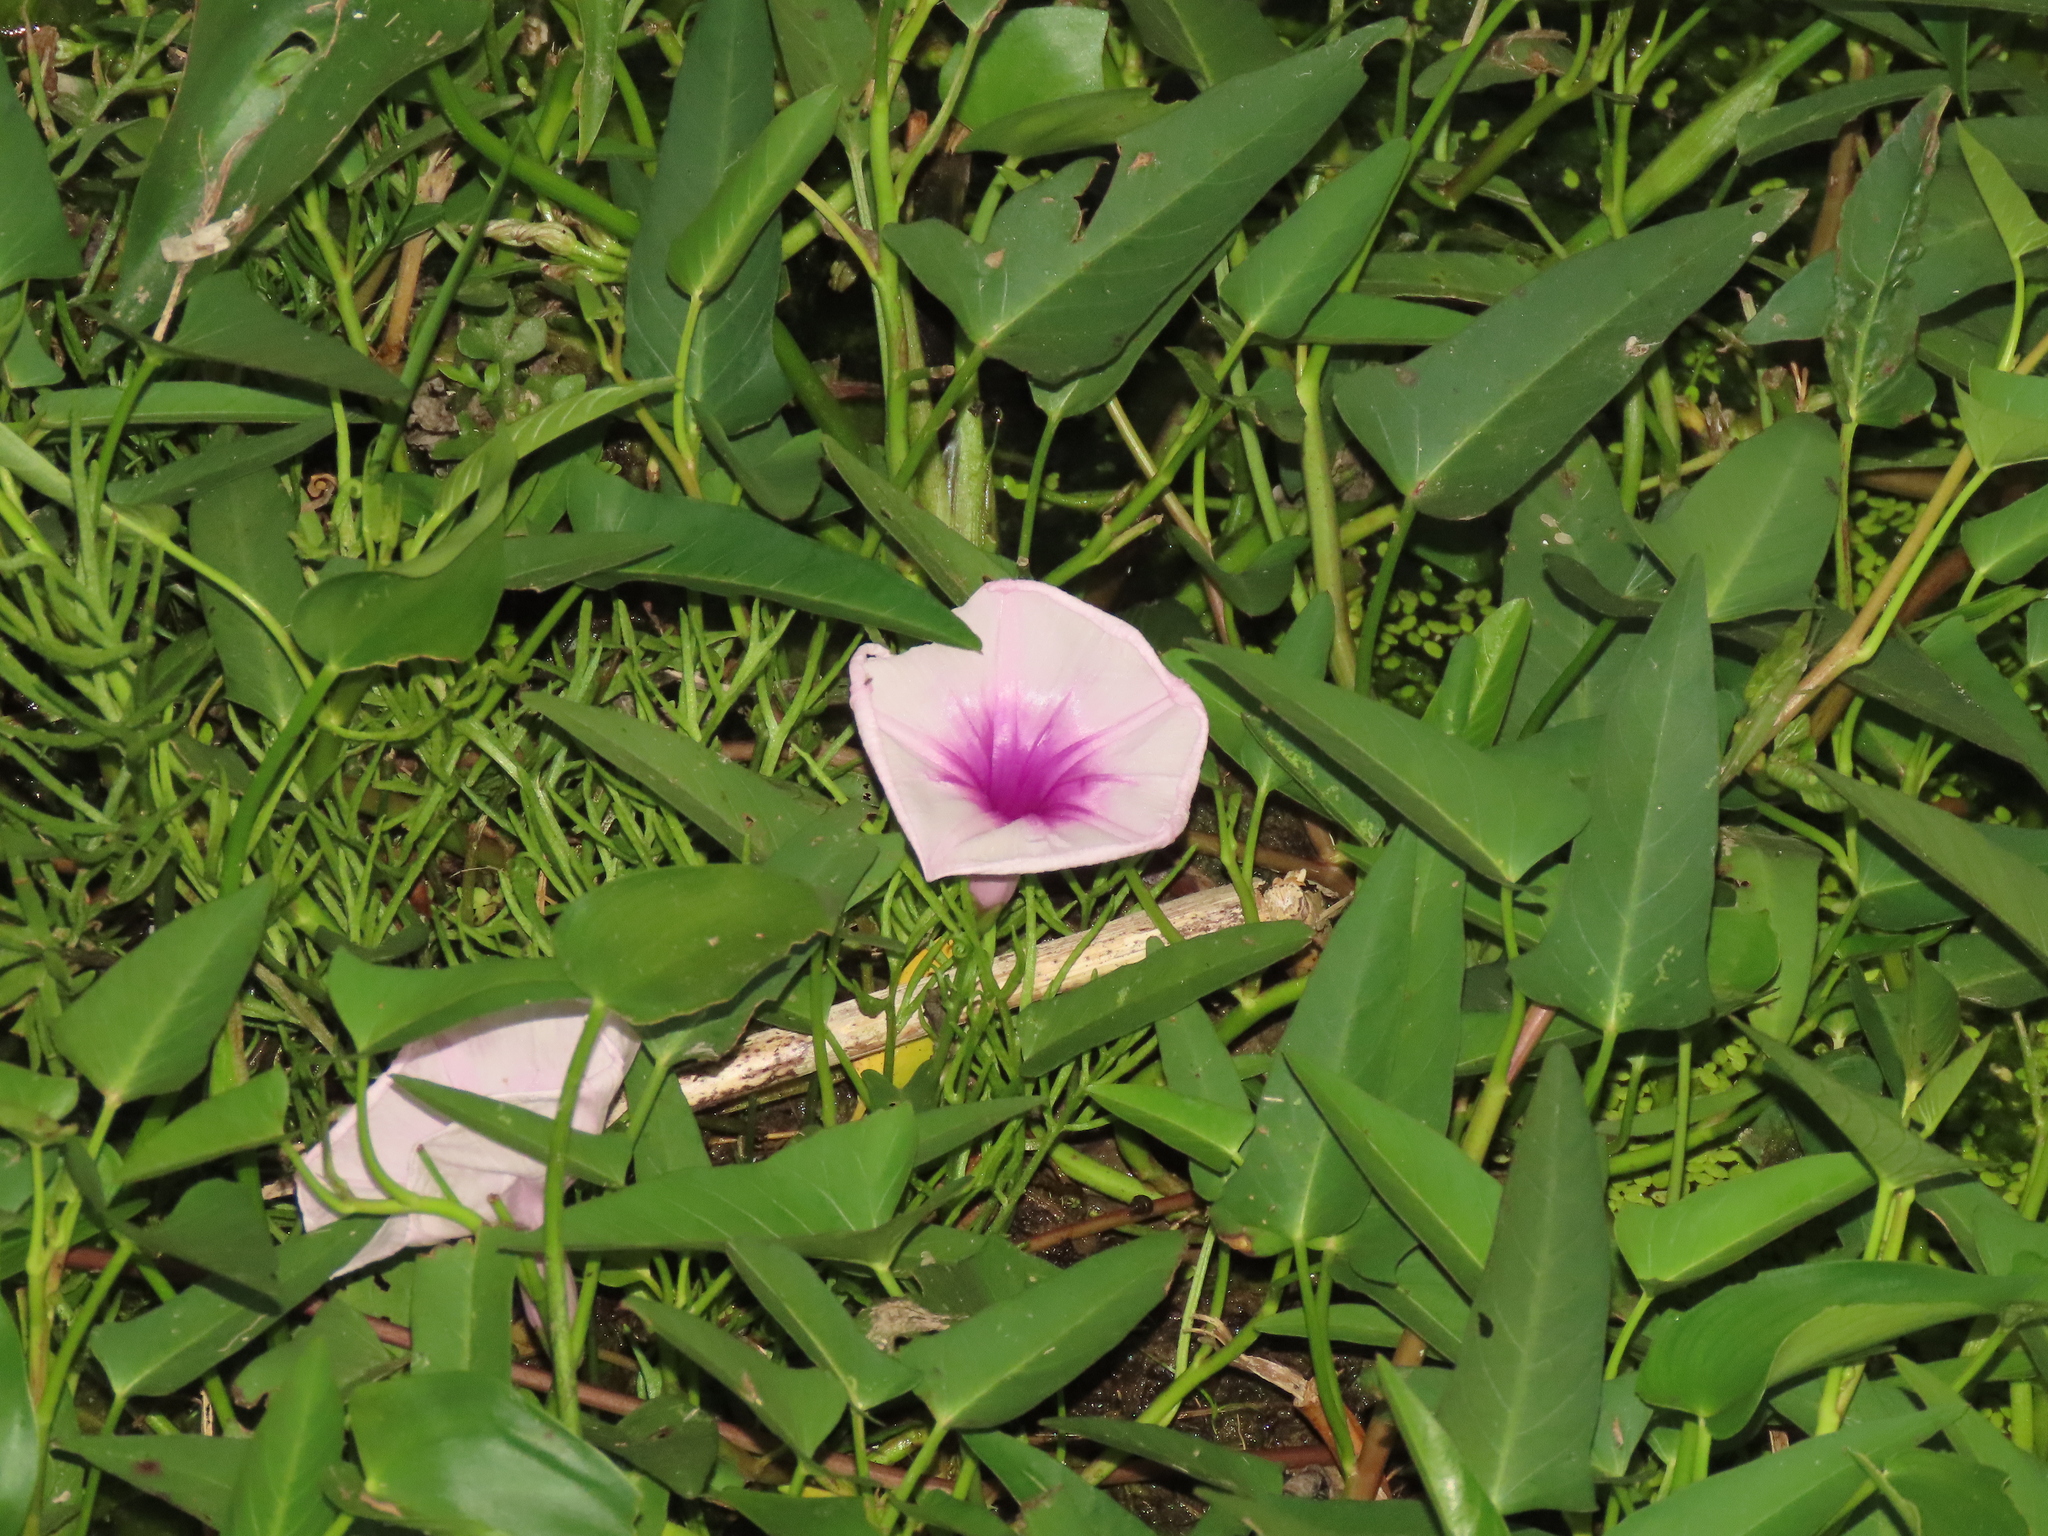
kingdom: Plantae
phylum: Tracheophyta
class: Magnoliopsida
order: Solanales
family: Convolvulaceae
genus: Ipomoea
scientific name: Ipomoea aquatica
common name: Swamp morning-glory
